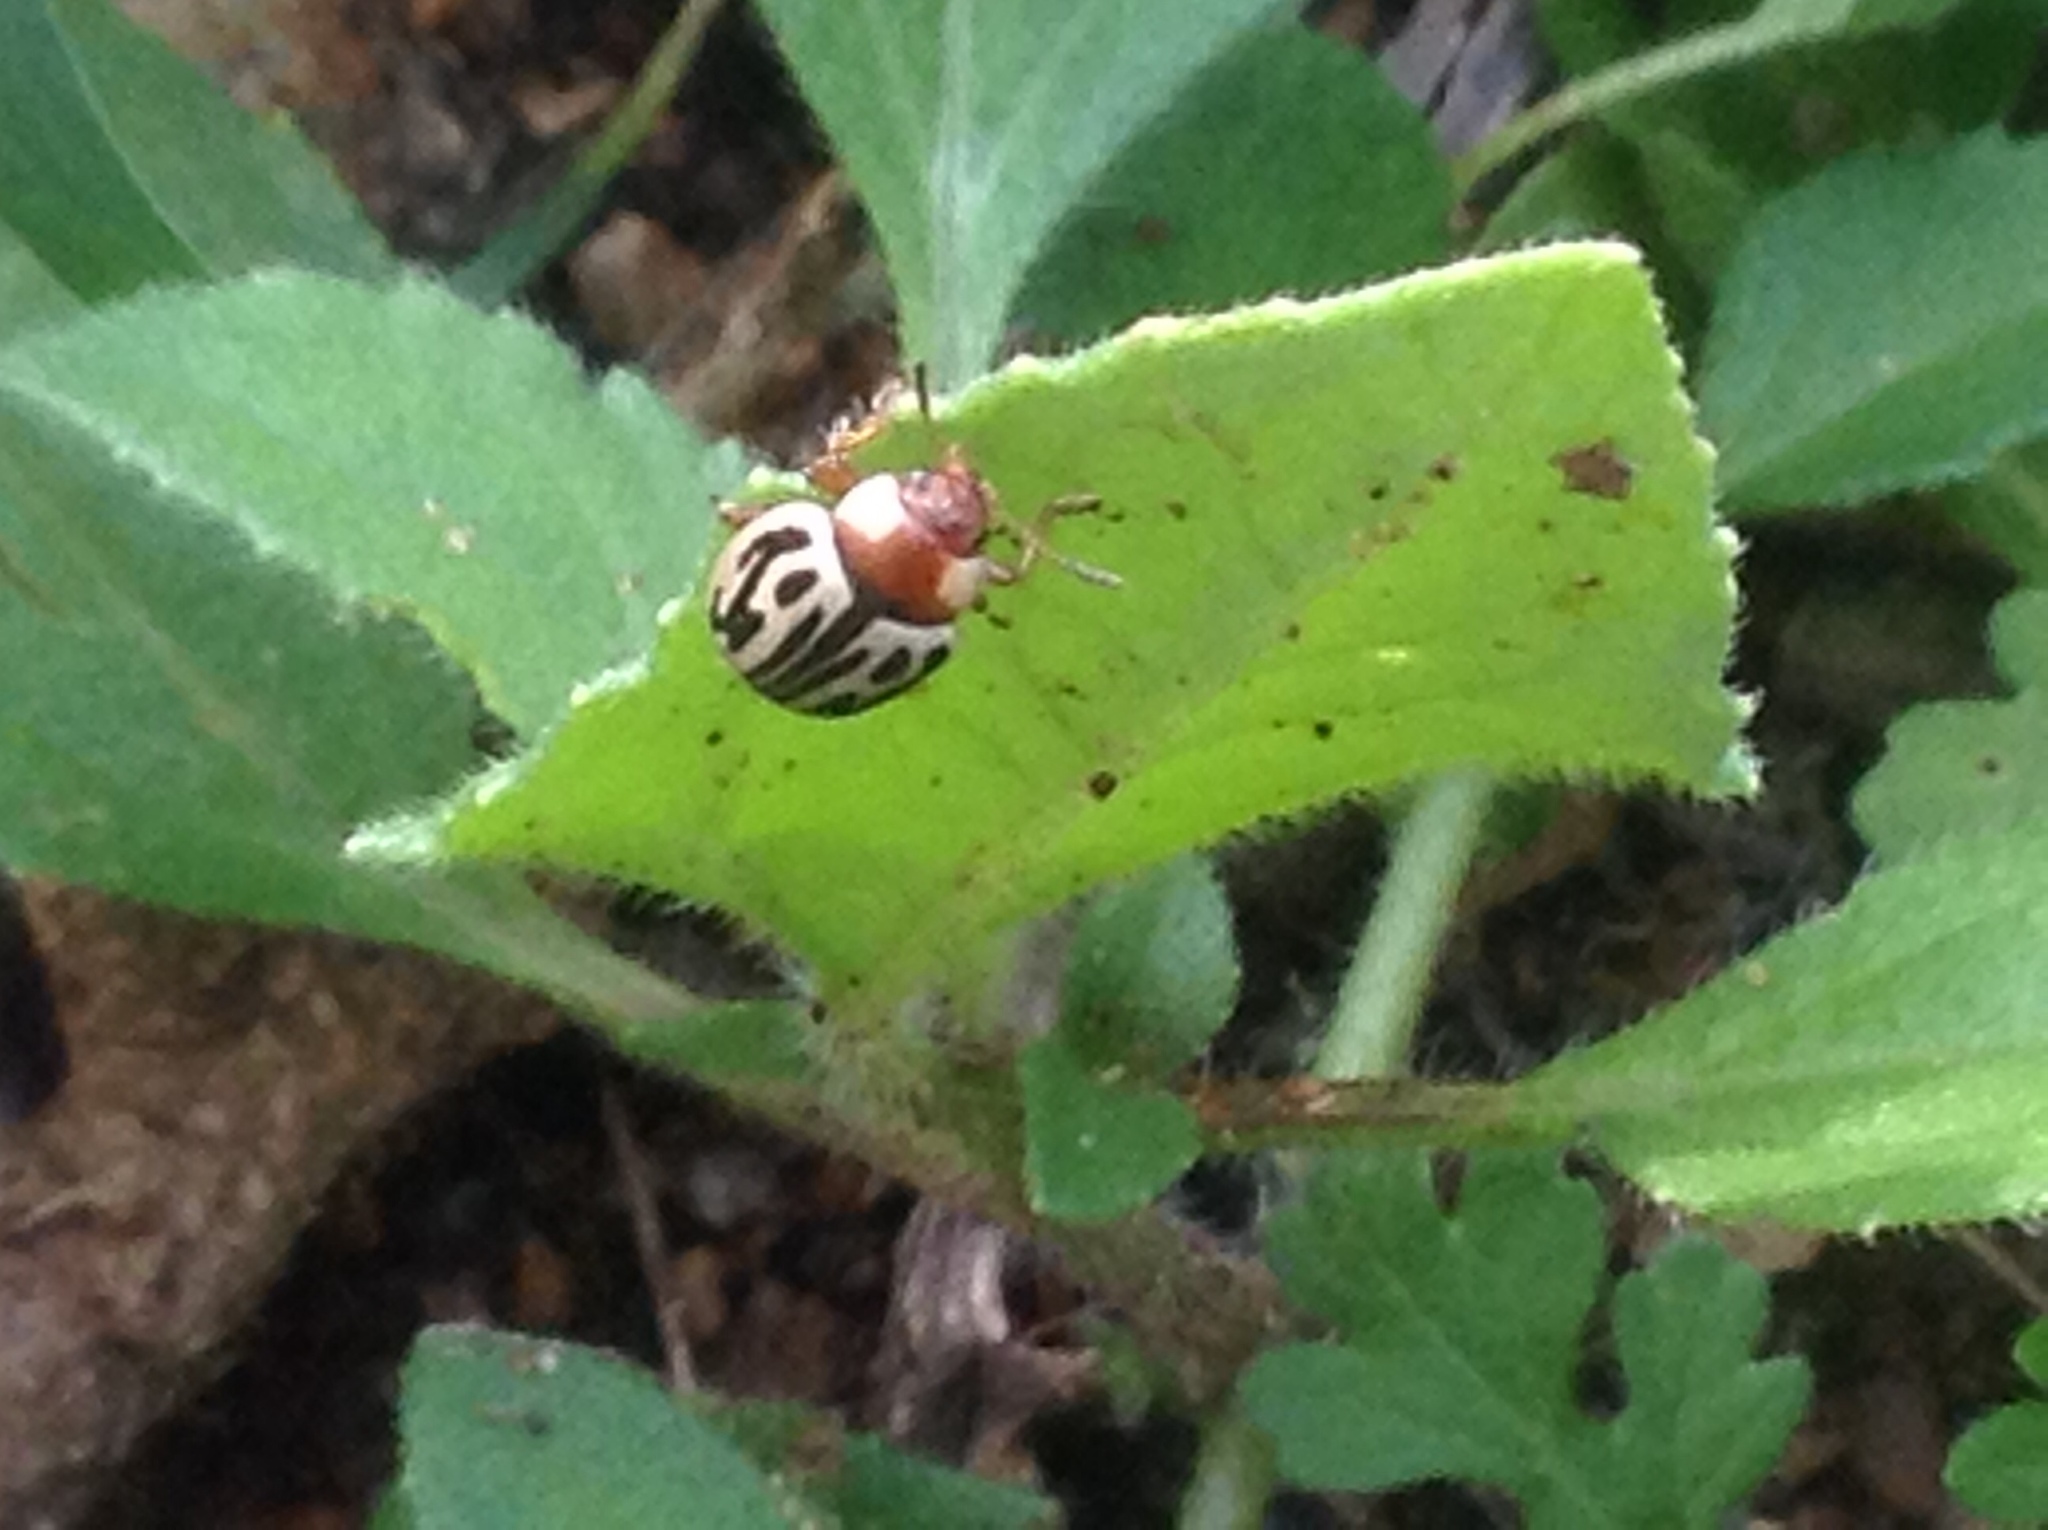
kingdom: Animalia
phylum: Arthropoda
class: Insecta
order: Coleoptera
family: Chrysomelidae
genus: Calligrapha
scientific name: Calligrapha
